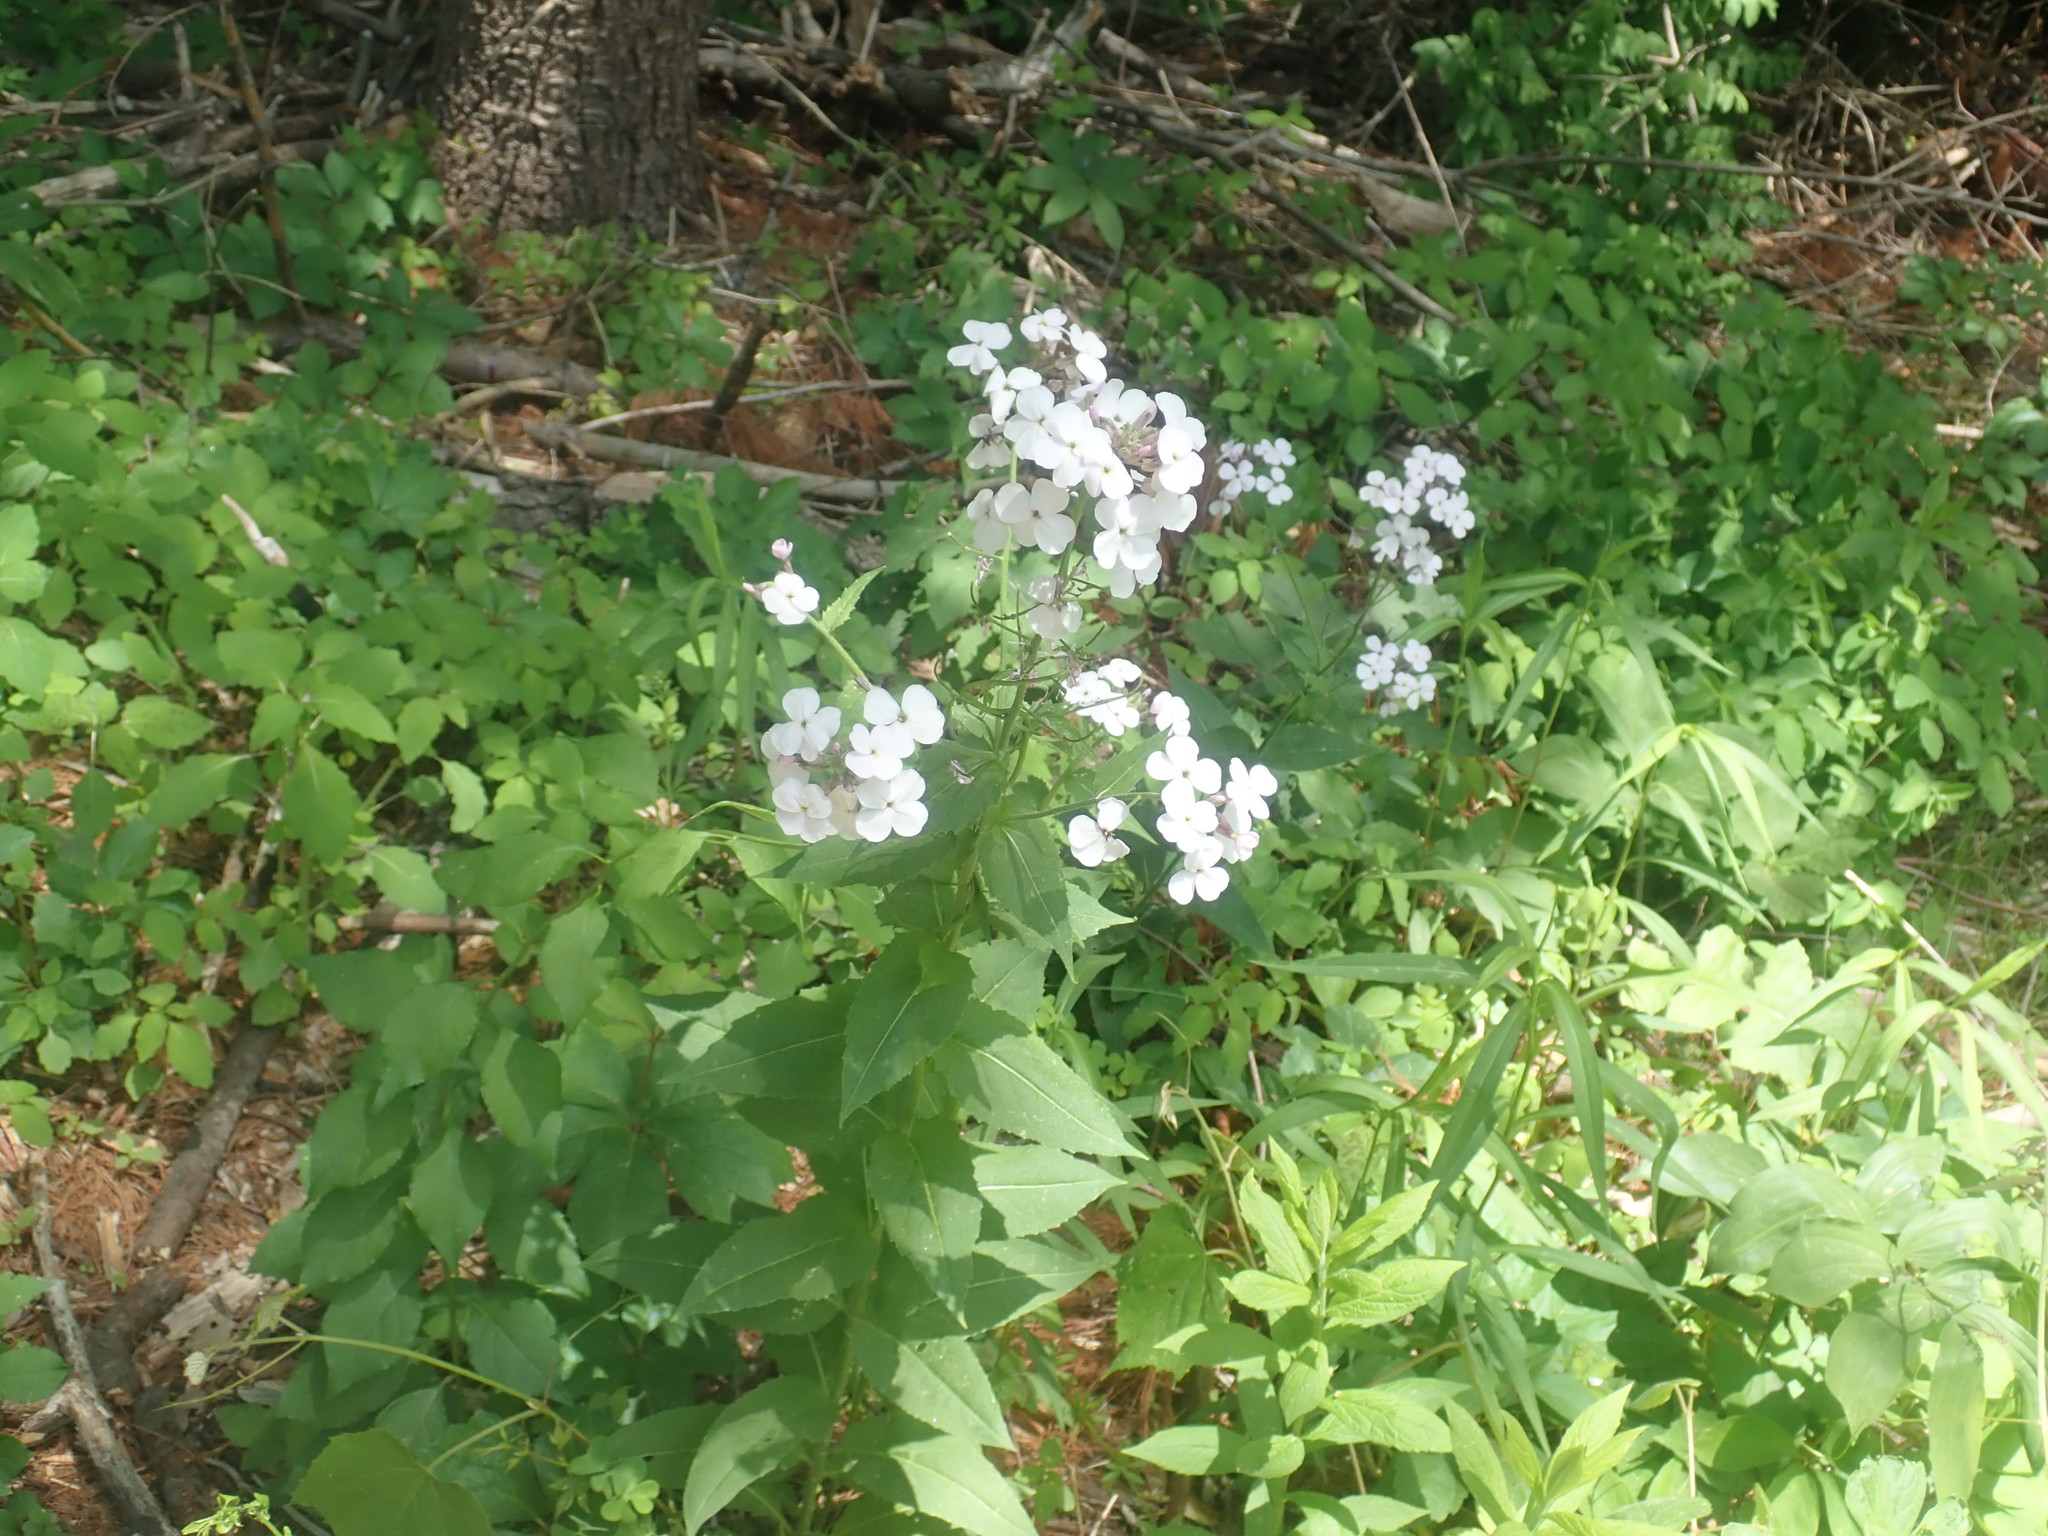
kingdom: Plantae
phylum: Tracheophyta
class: Magnoliopsida
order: Brassicales
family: Brassicaceae
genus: Hesperis
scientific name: Hesperis matronalis
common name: Dame's-violet
